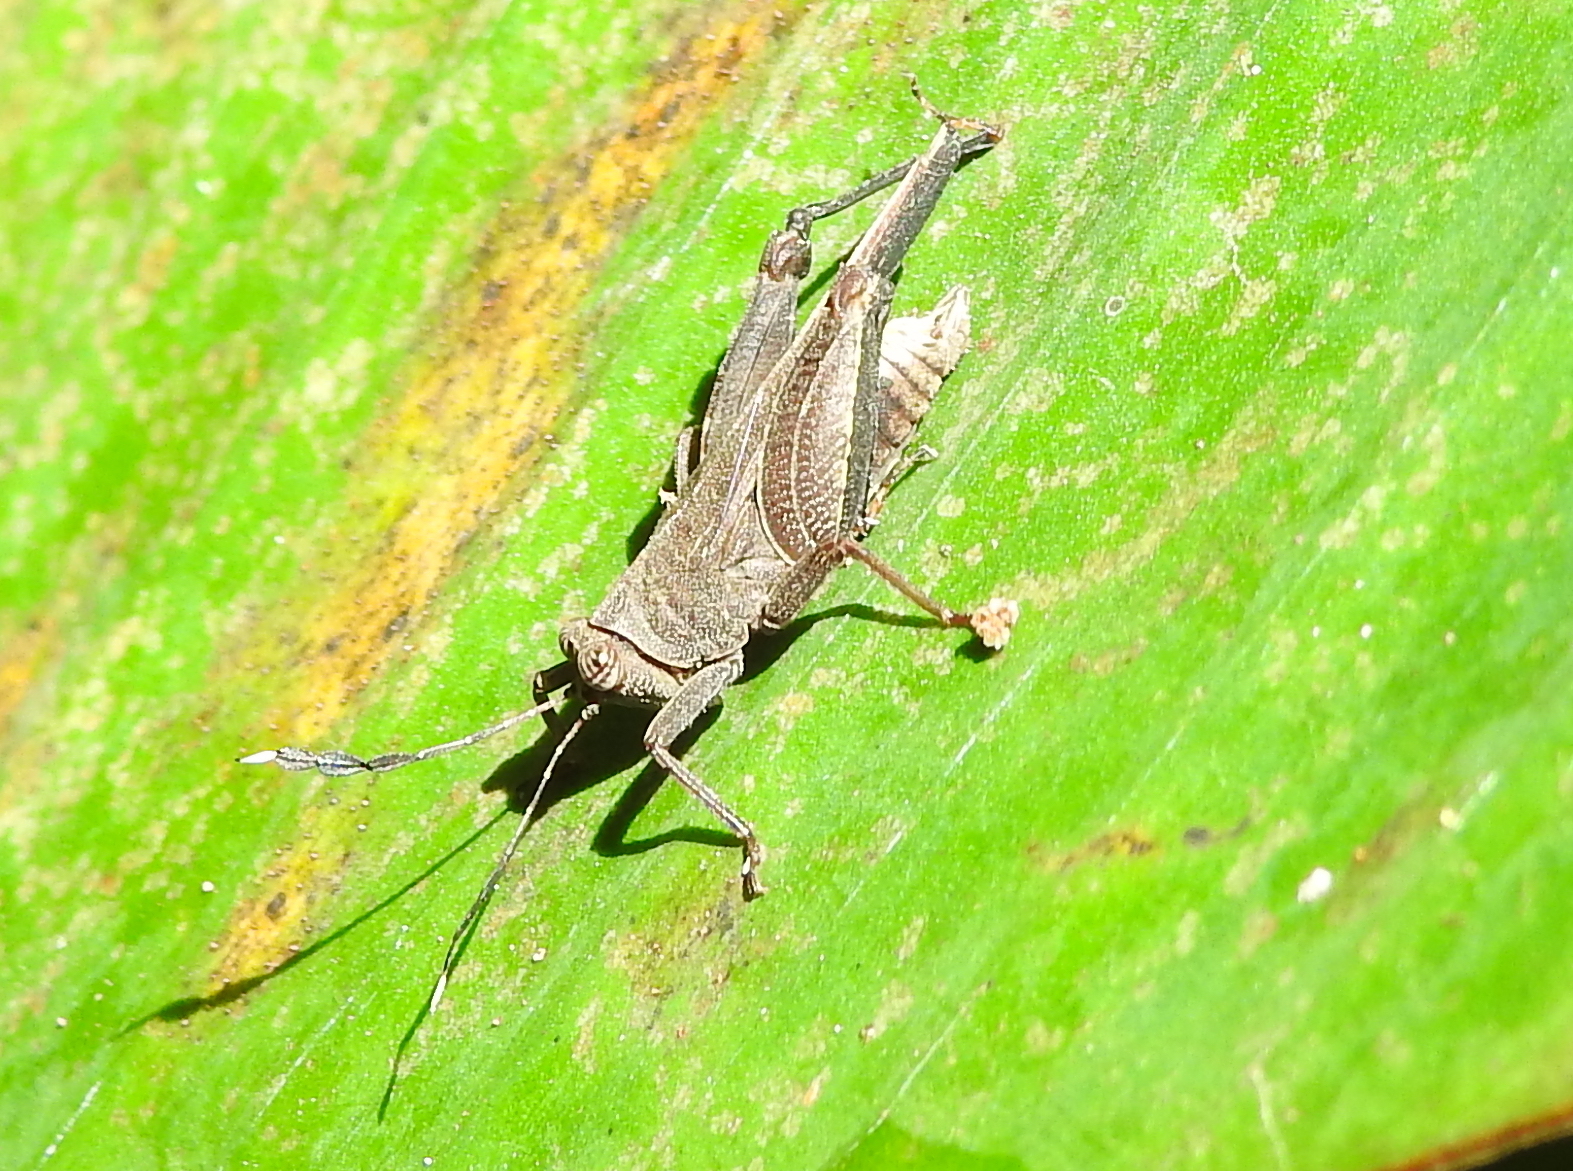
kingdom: Animalia
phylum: Arthropoda
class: Insecta
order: Orthoptera
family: Tetrigidae
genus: Phaesticus
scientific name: Phaesticus mellerborgi
